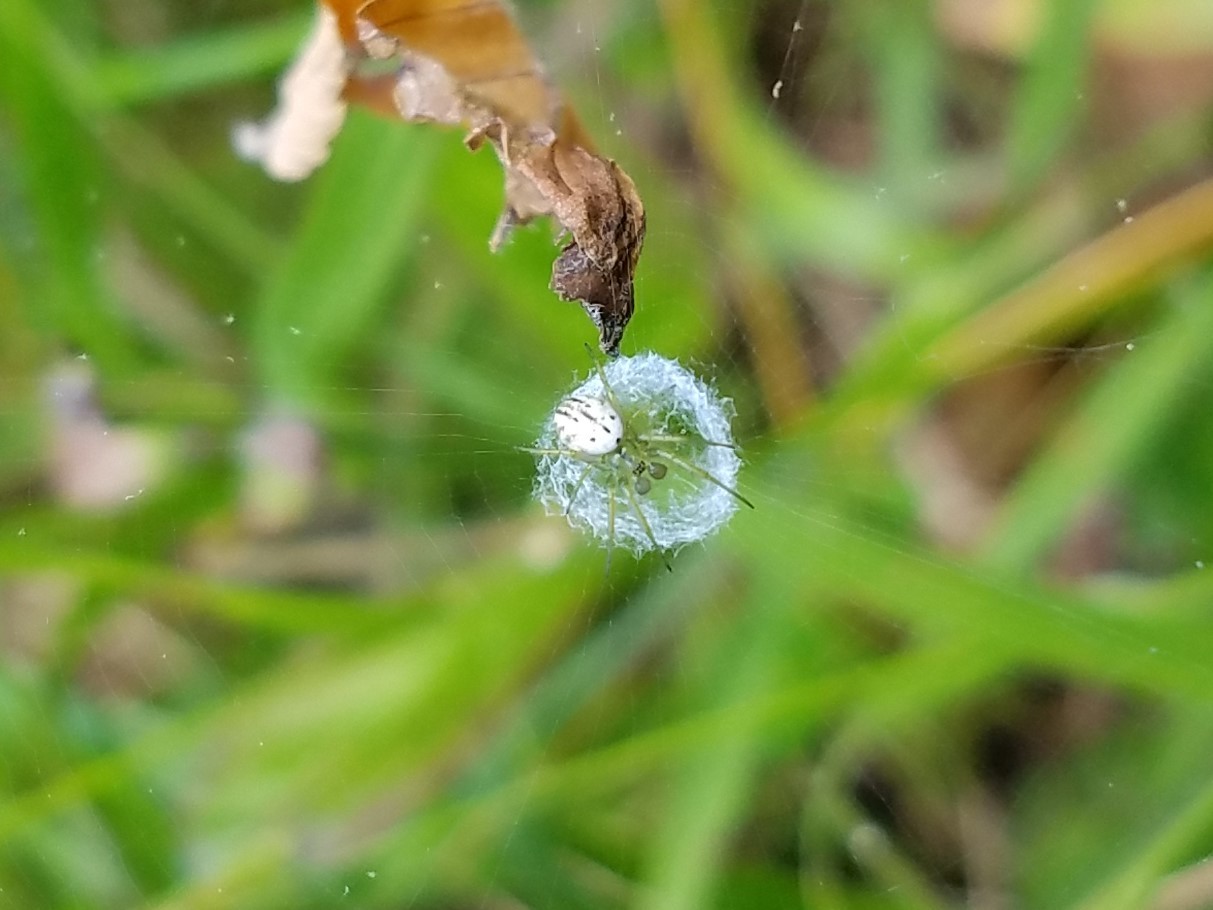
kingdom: Animalia
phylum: Arthropoda
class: Arachnida
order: Araneae
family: Araneidae
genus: Mangora
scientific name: Mangora gibberosa
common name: Lined orbweaver
